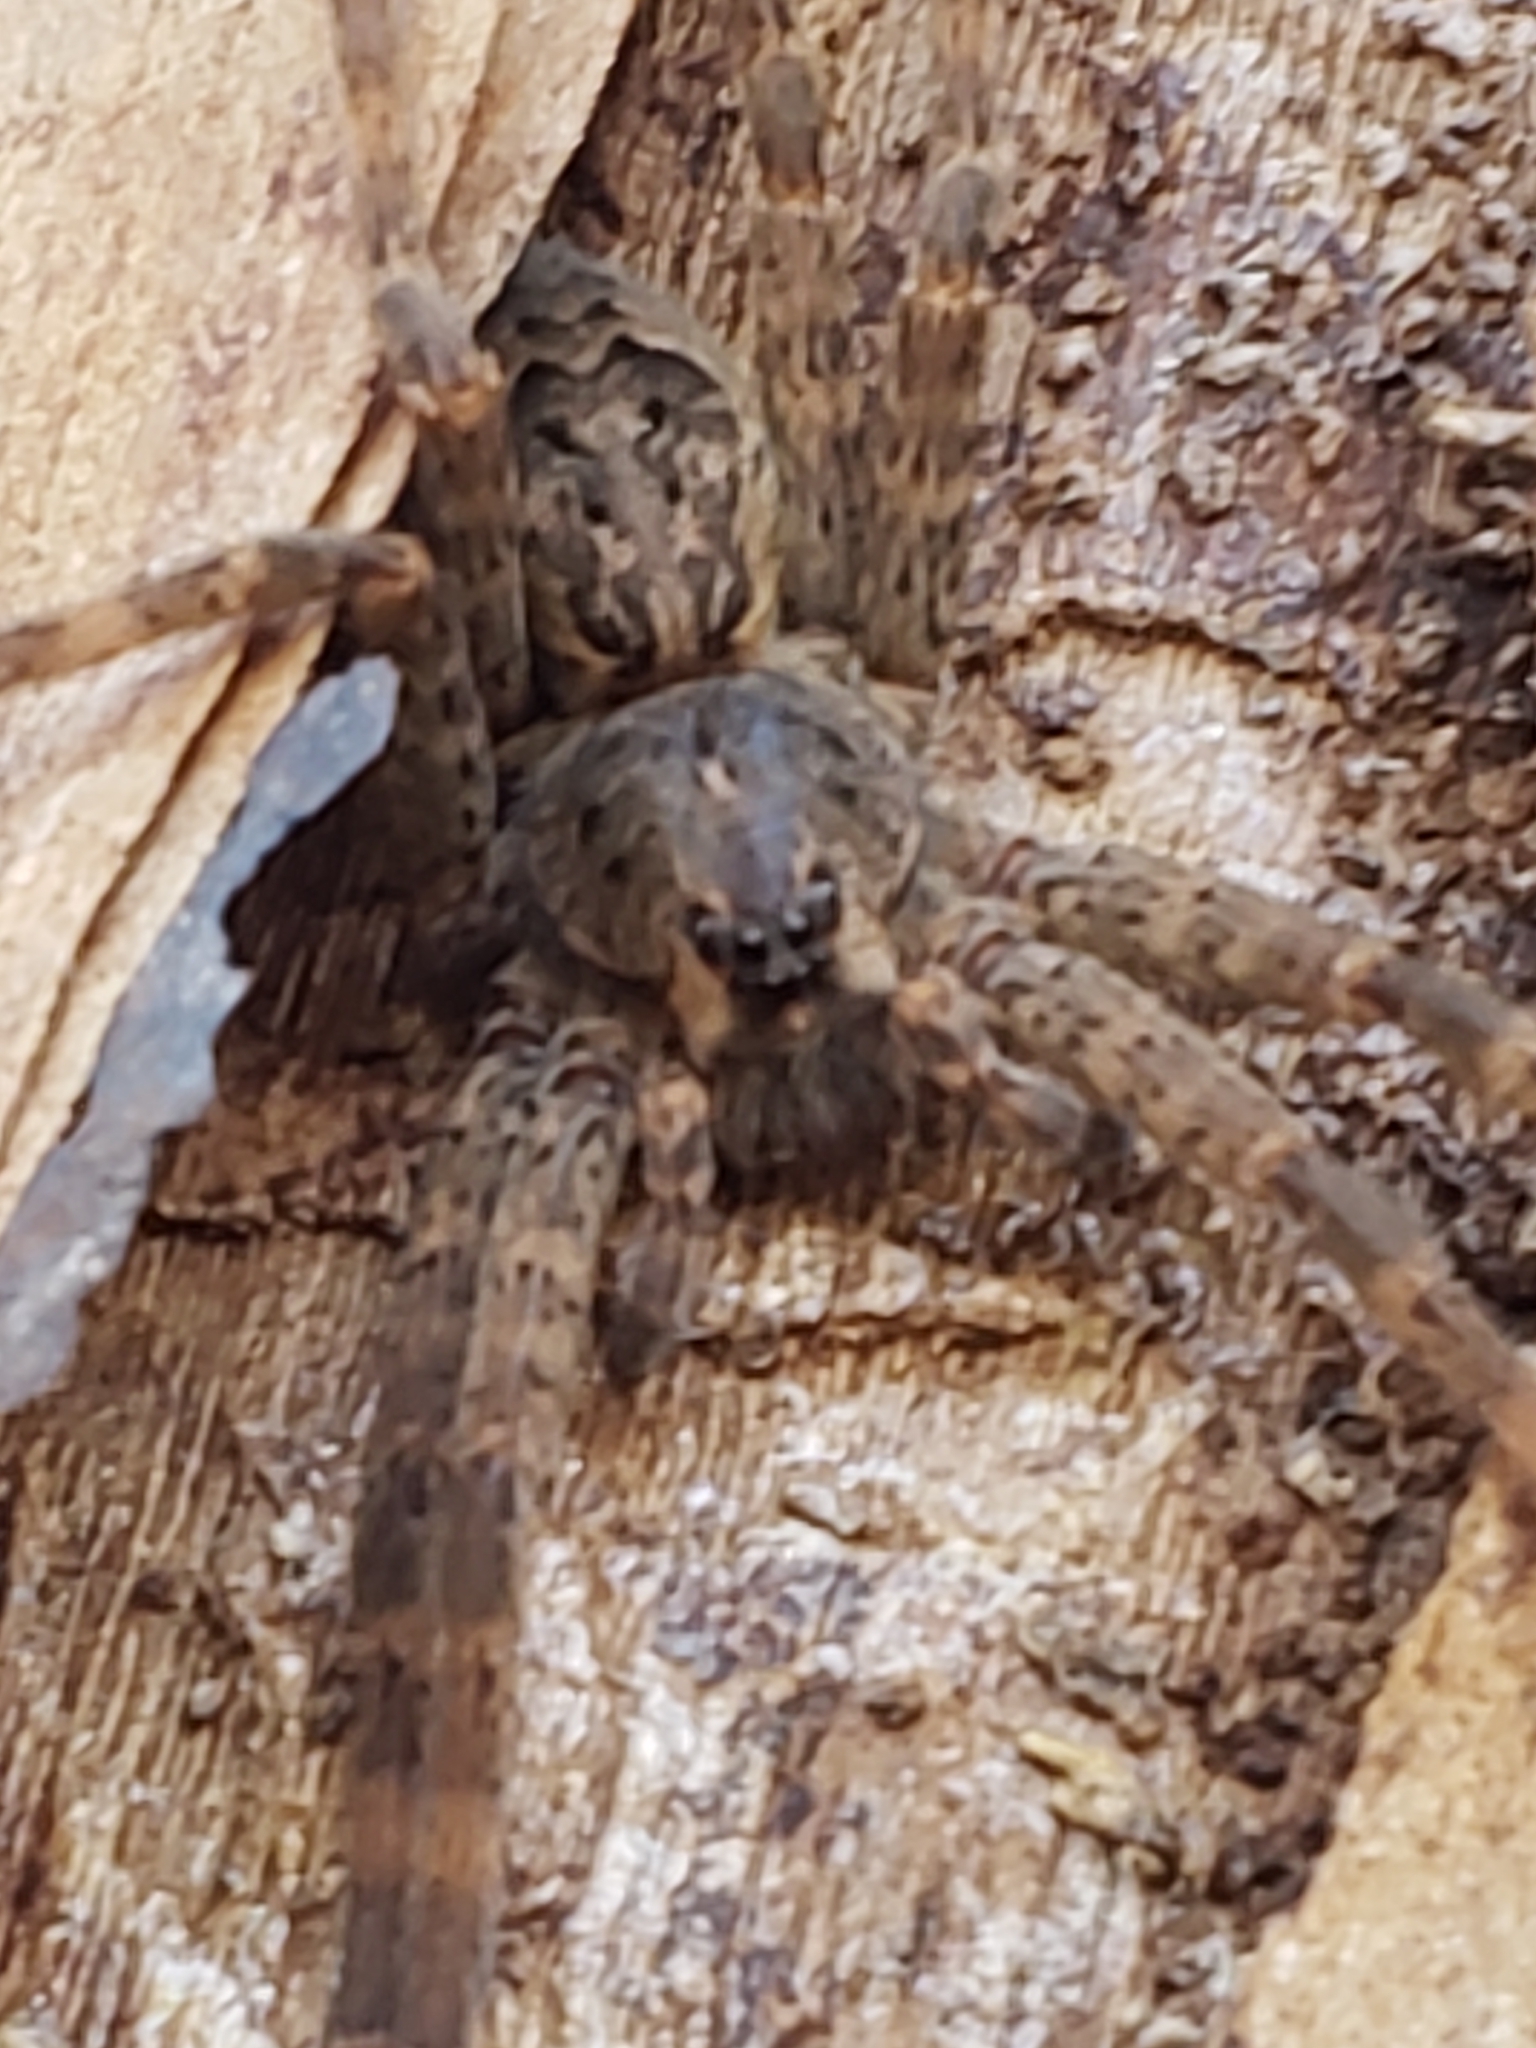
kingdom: Animalia
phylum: Arthropoda
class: Arachnida
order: Araneae
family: Pisauridae
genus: Dolomedes
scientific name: Dolomedes tenebrosus
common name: Dark fishing spider
